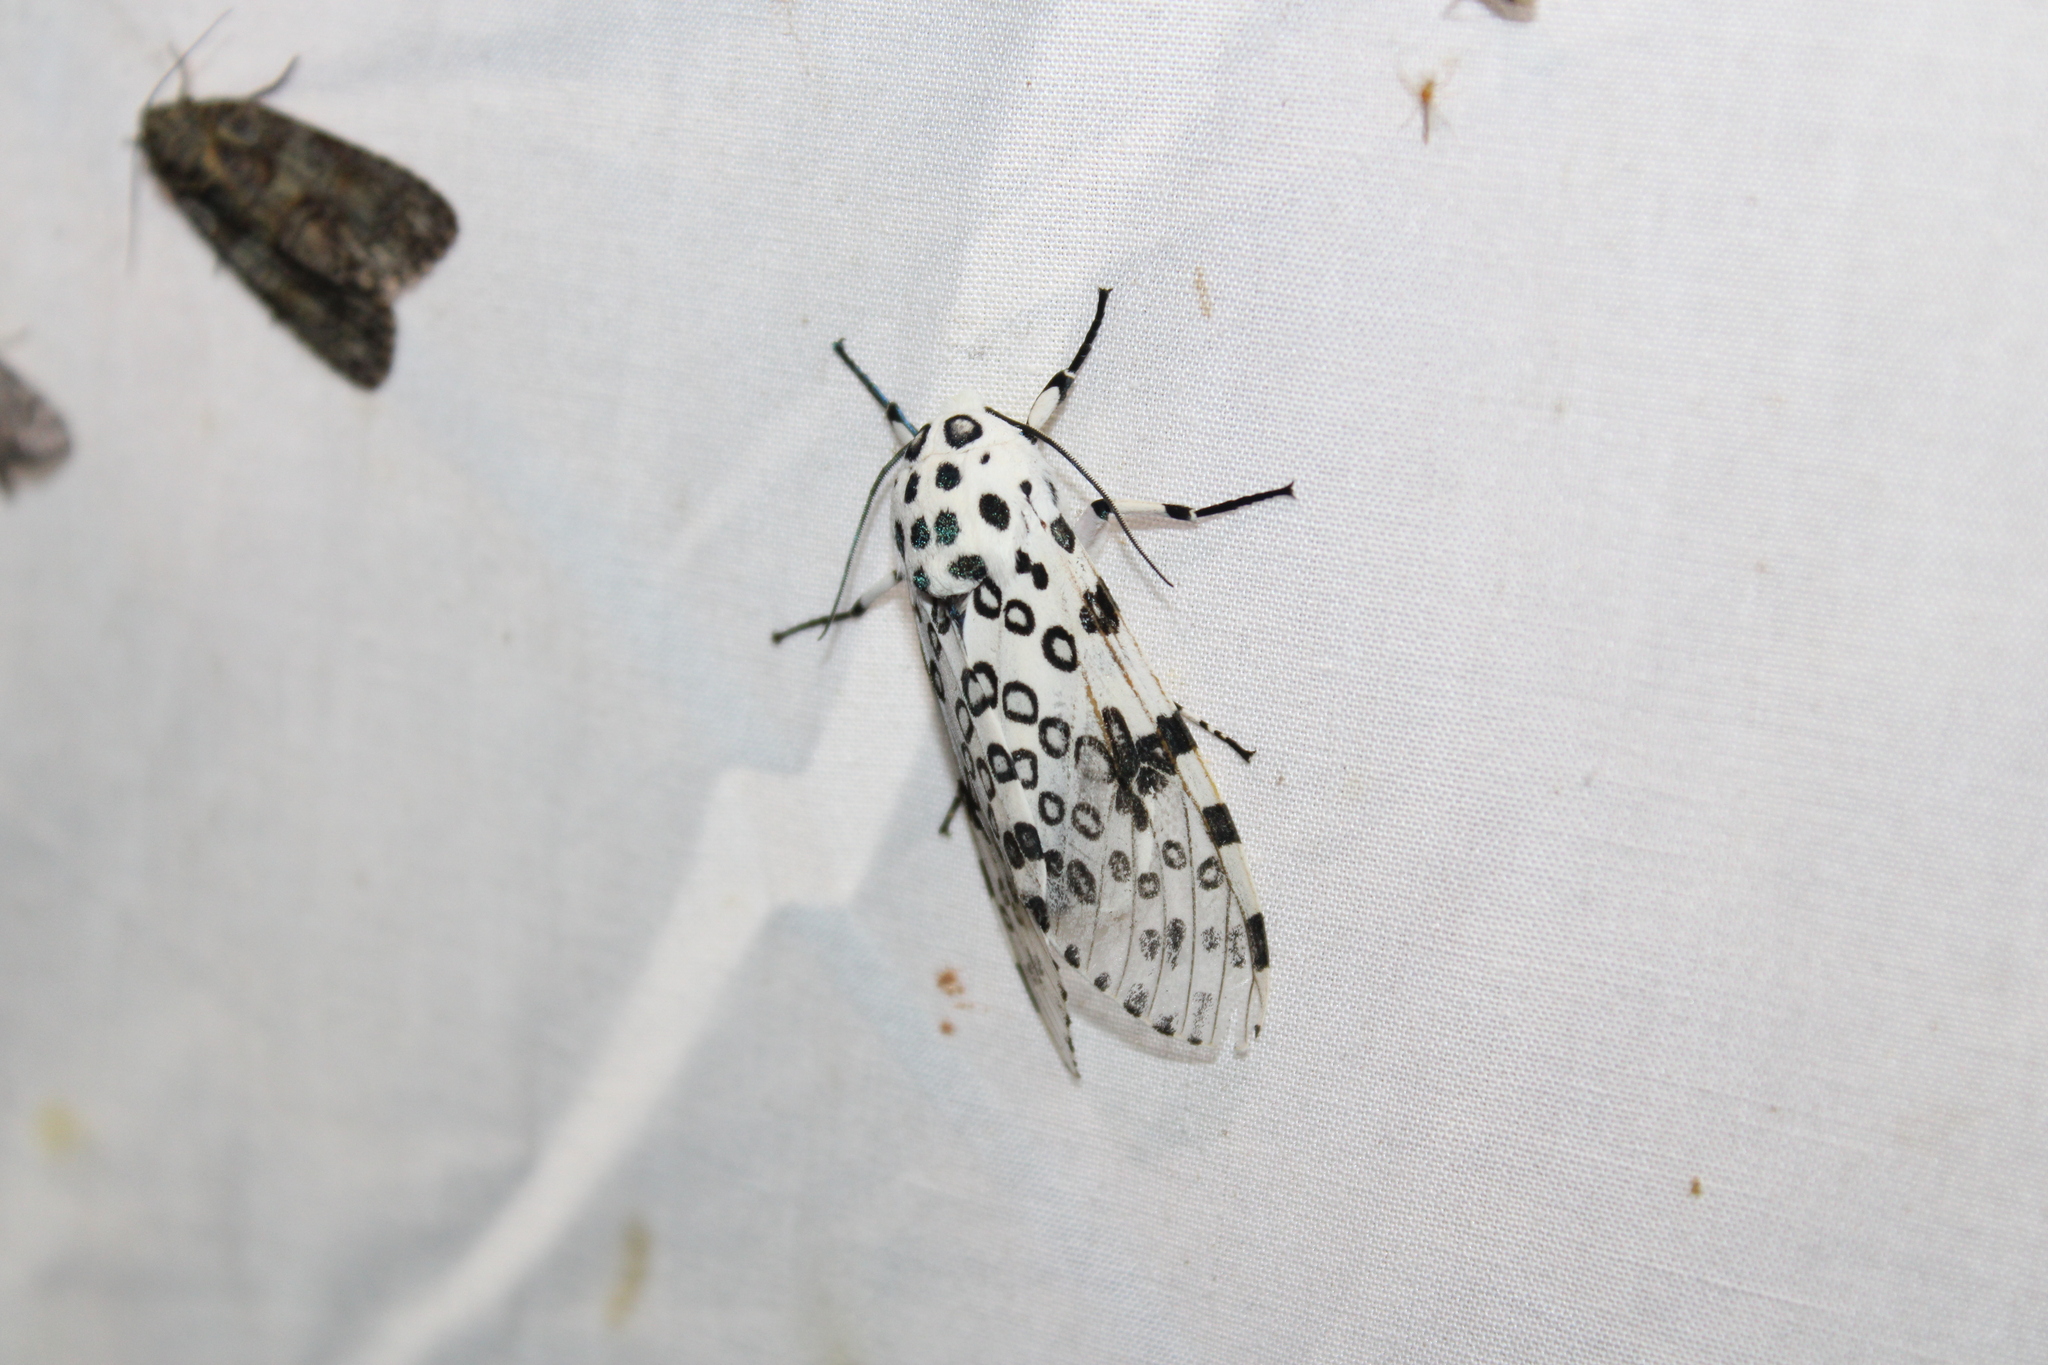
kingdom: Animalia
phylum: Arthropoda
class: Insecta
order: Lepidoptera
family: Erebidae
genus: Hypercompe
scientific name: Hypercompe scribonia
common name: Giant leopard moth
